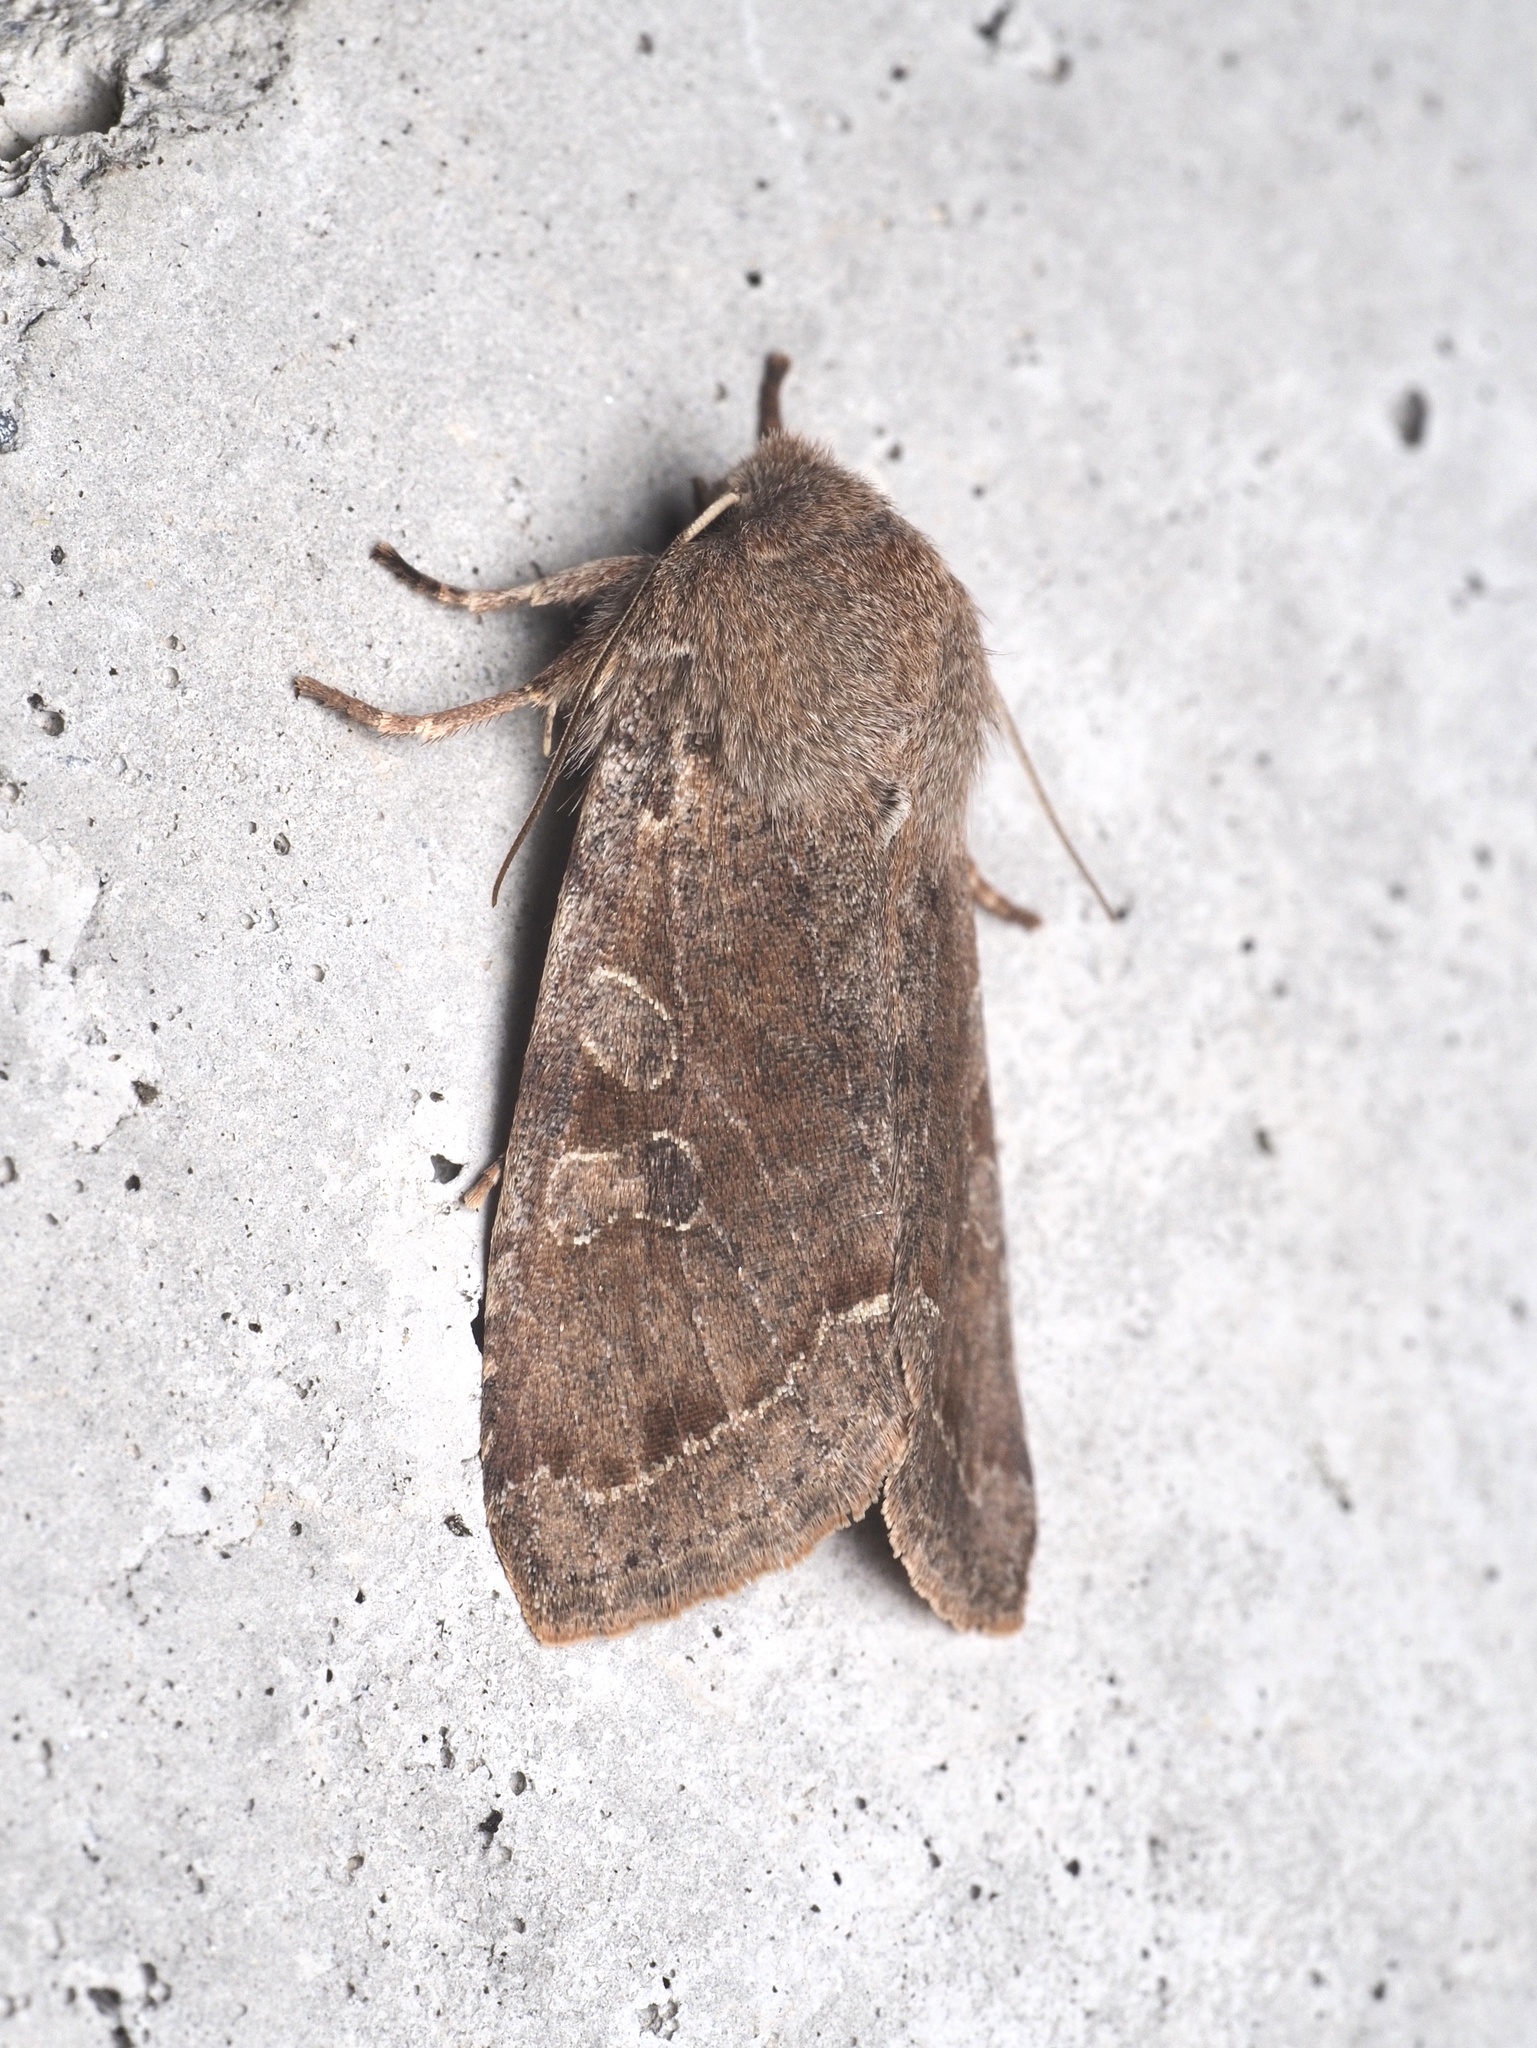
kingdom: Animalia
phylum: Arthropoda
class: Insecta
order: Lepidoptera
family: Noctuidae
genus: Orthosia
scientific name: Orthosia incerta
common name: Clouded drab
